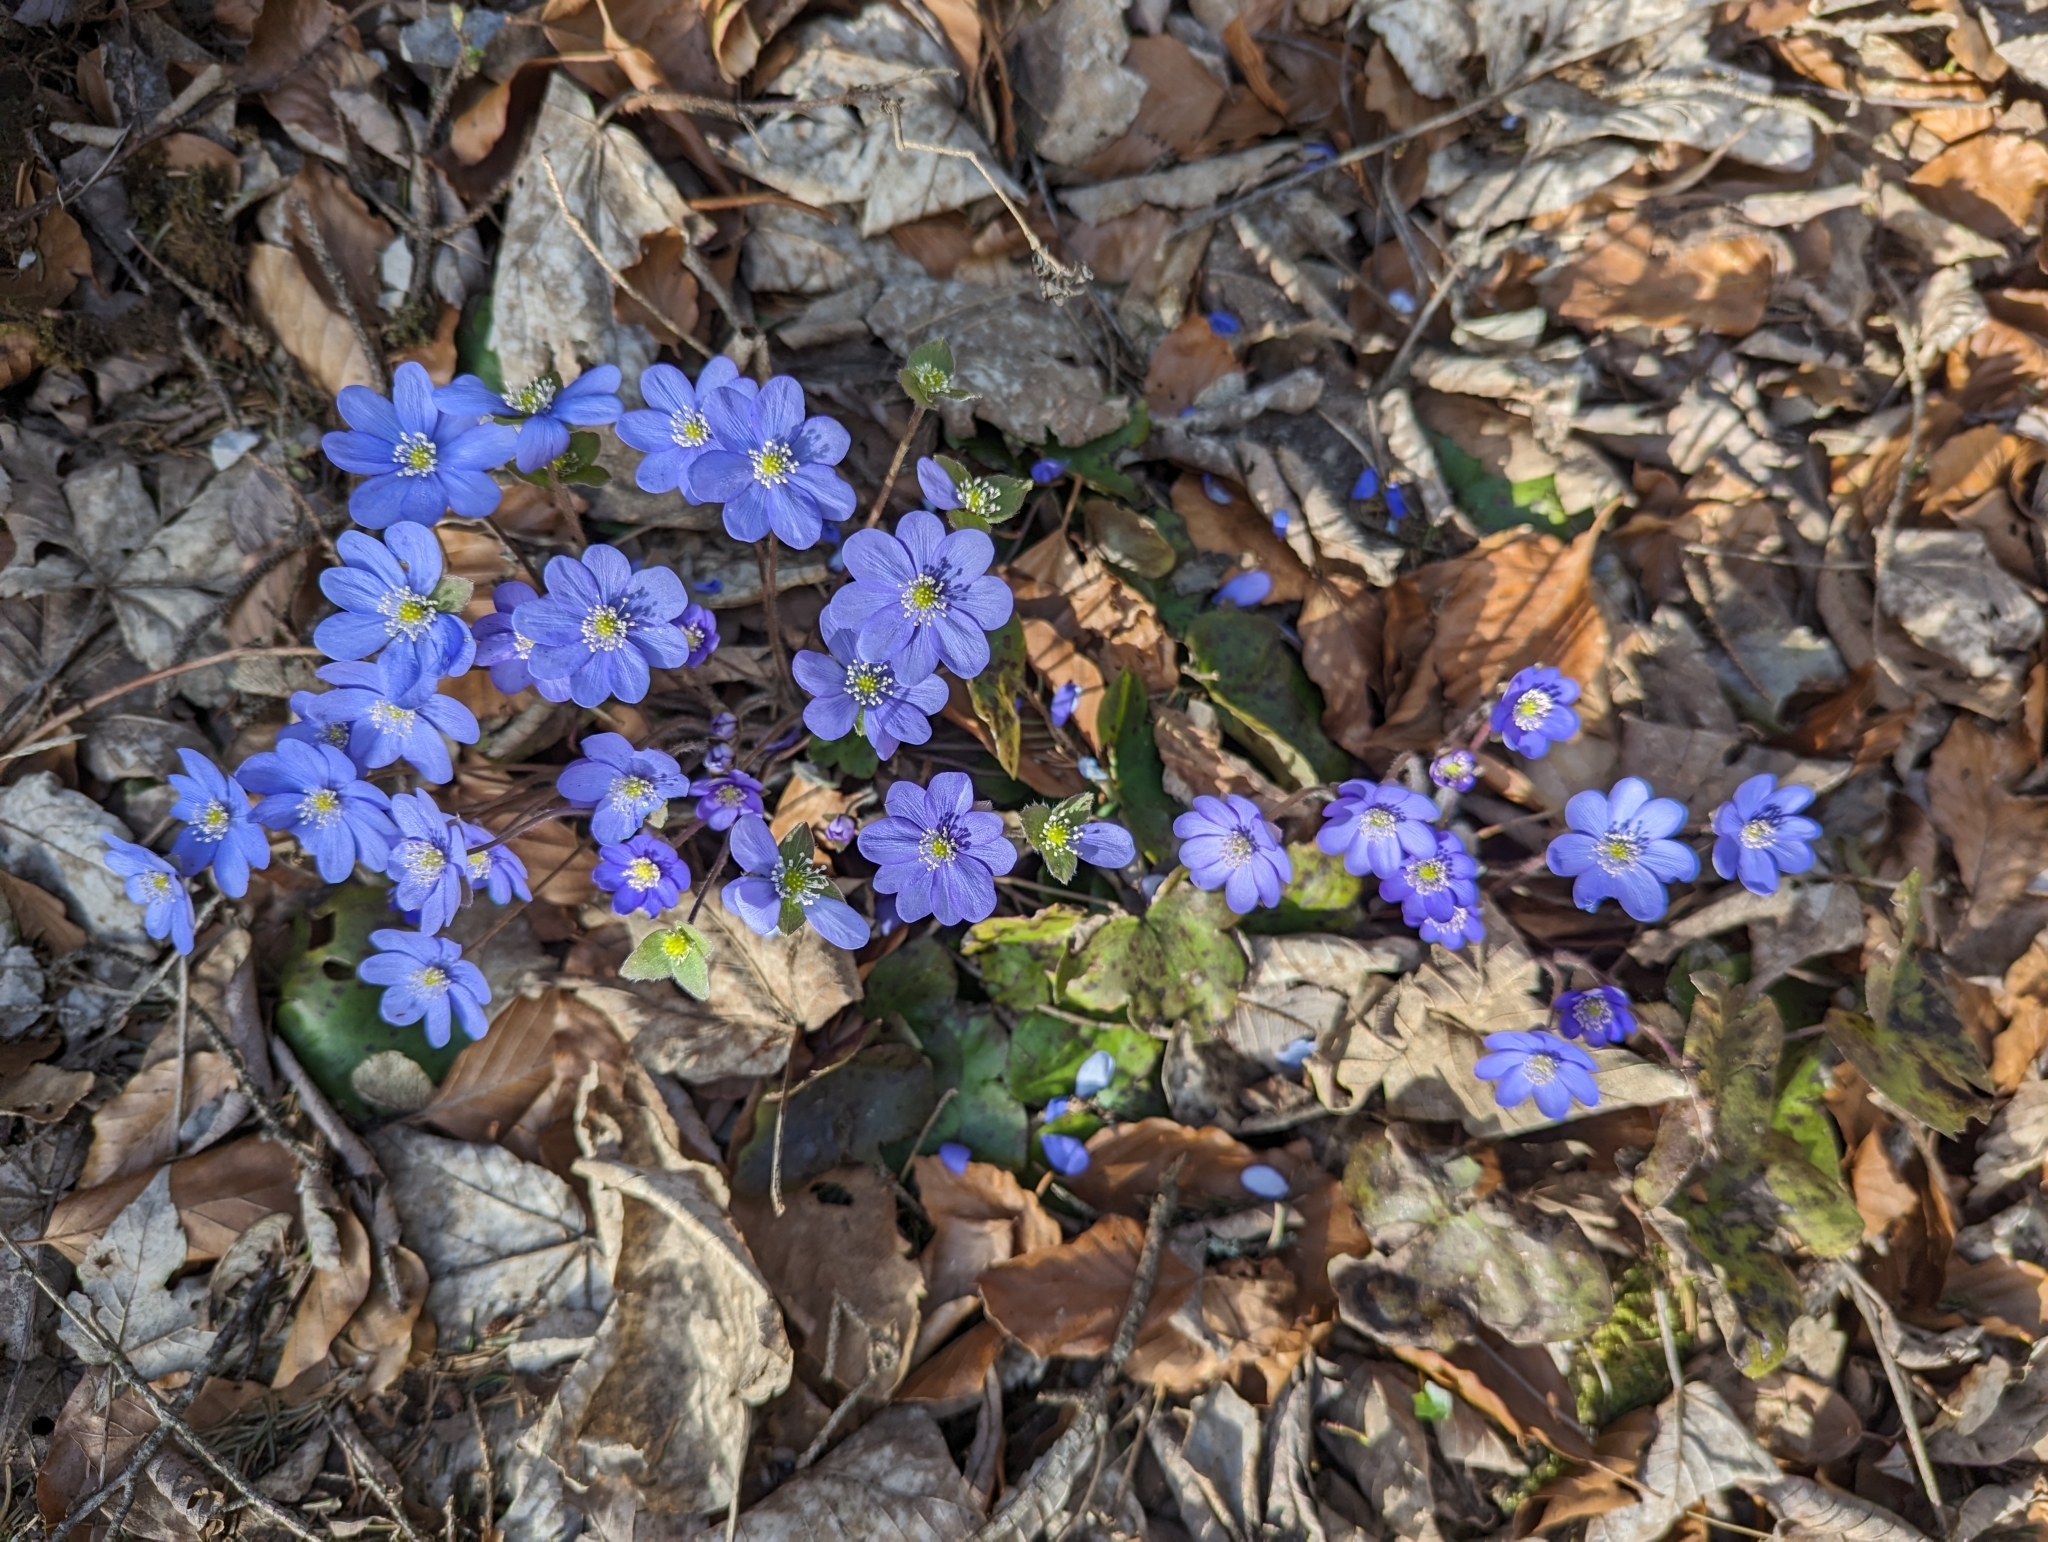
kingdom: Plantae
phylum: Tracheophyta
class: Magnoliopsida
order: Ranunculales
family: Ranunculaceae
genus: Hepatica
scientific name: Hepatica nobilis
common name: Liverleaf
